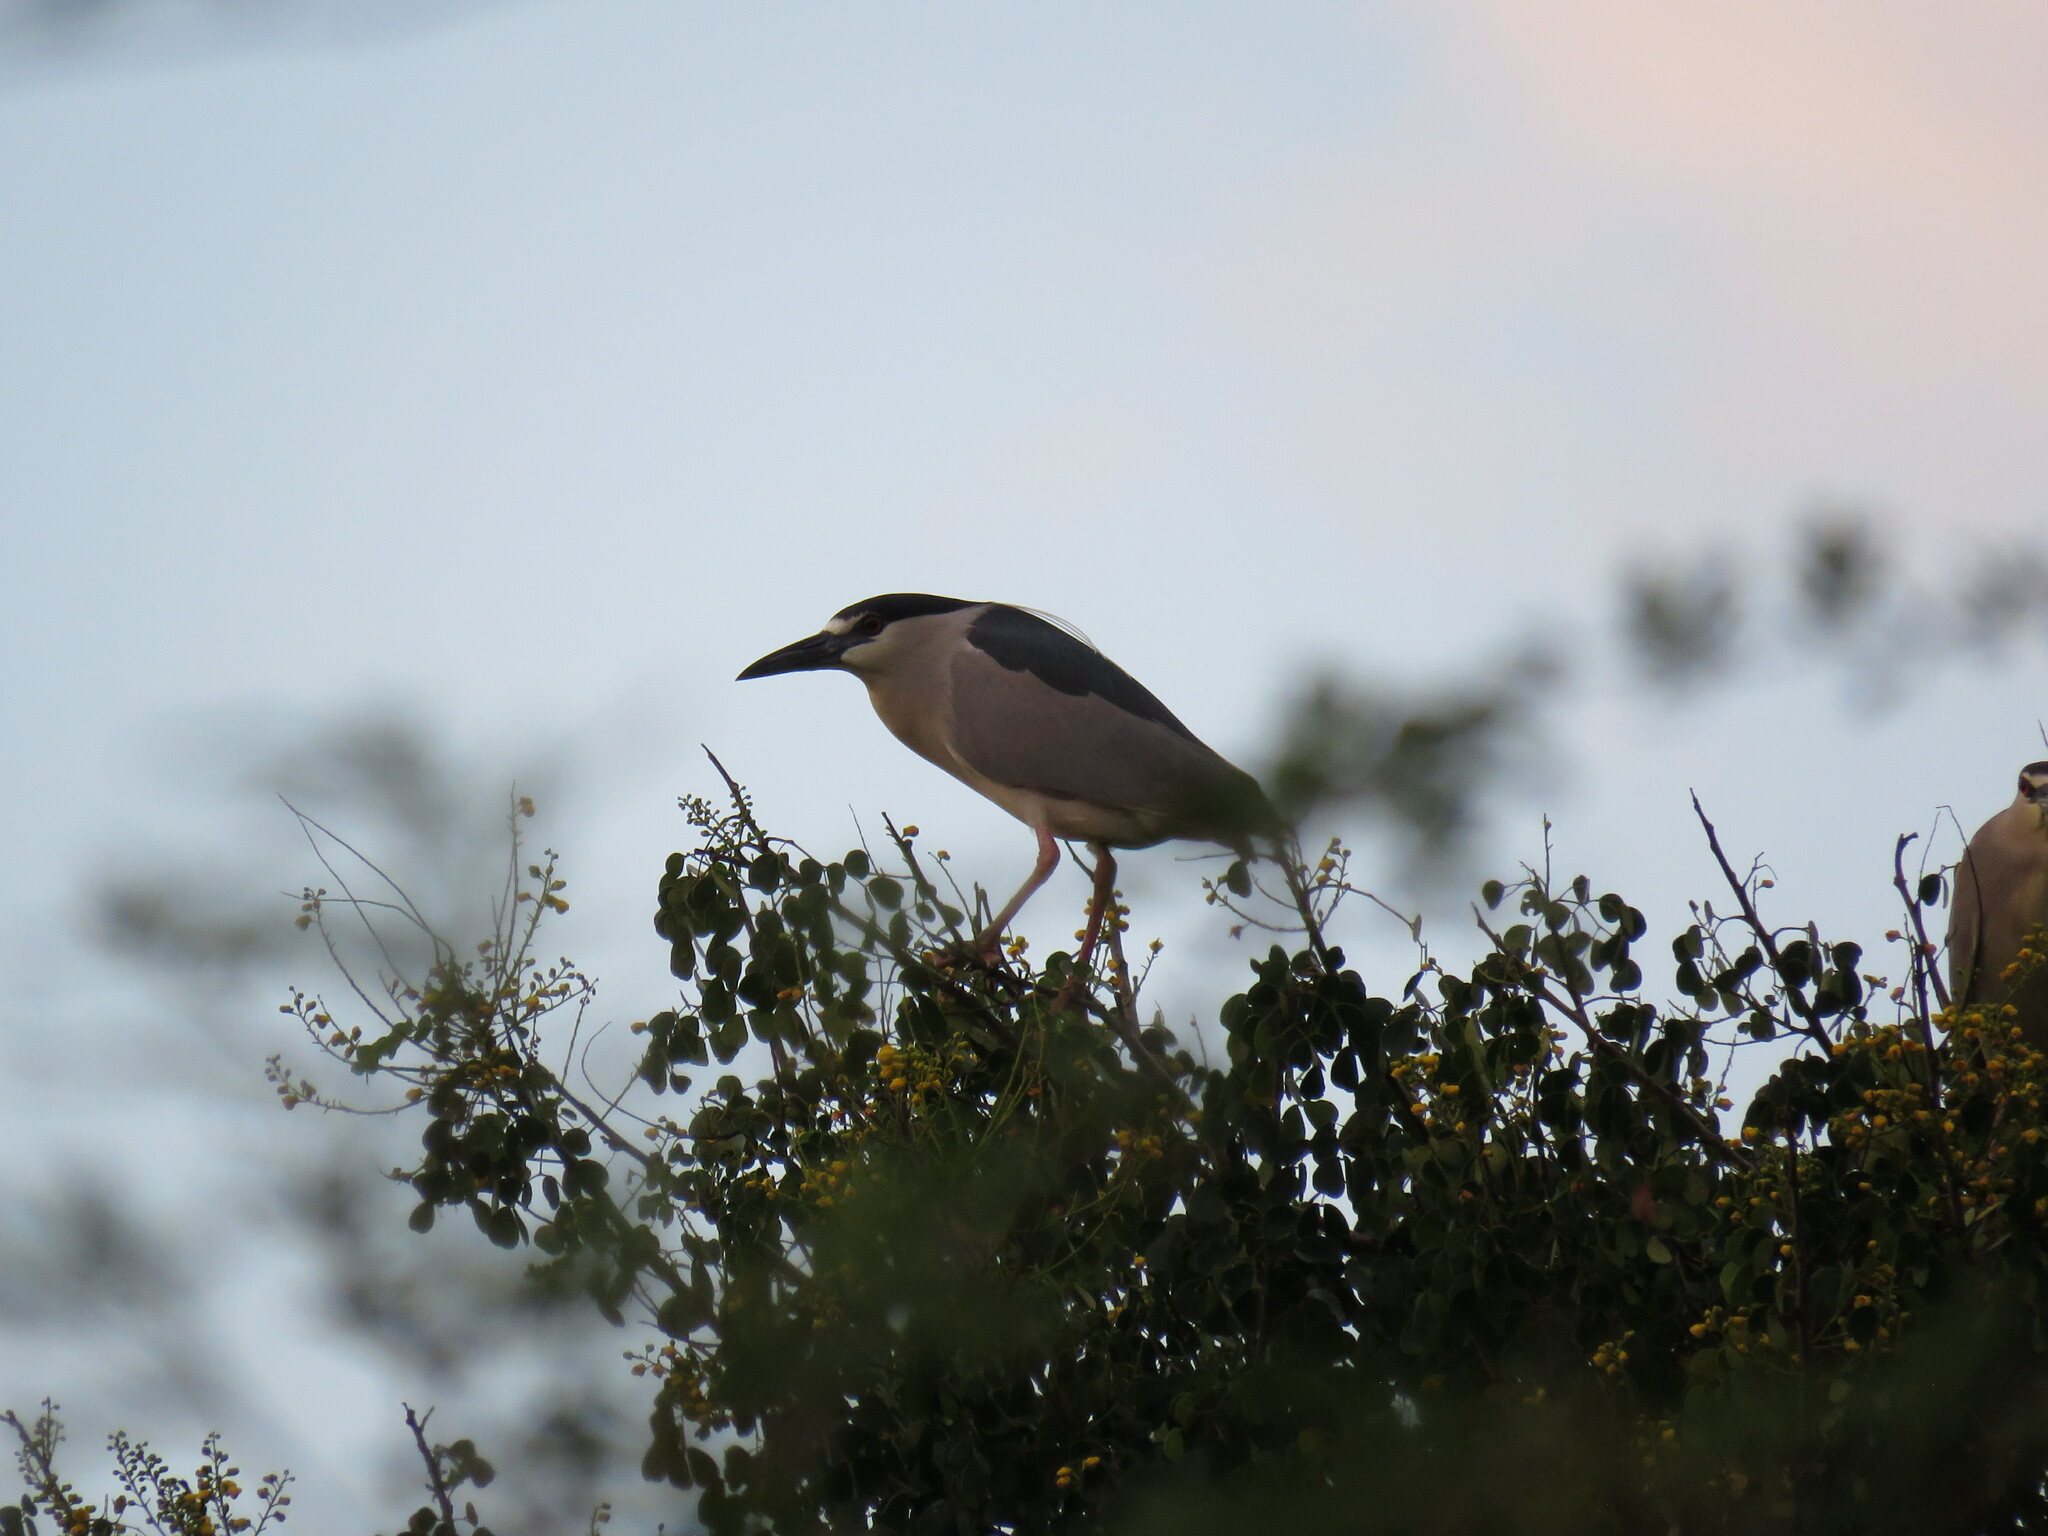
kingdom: Animalia
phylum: Chordata
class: Aves
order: Pelecaniformes
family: Ardeidae
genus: Nycticorax
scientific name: Nycticorax nycticorax
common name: Black-crowned night heron
